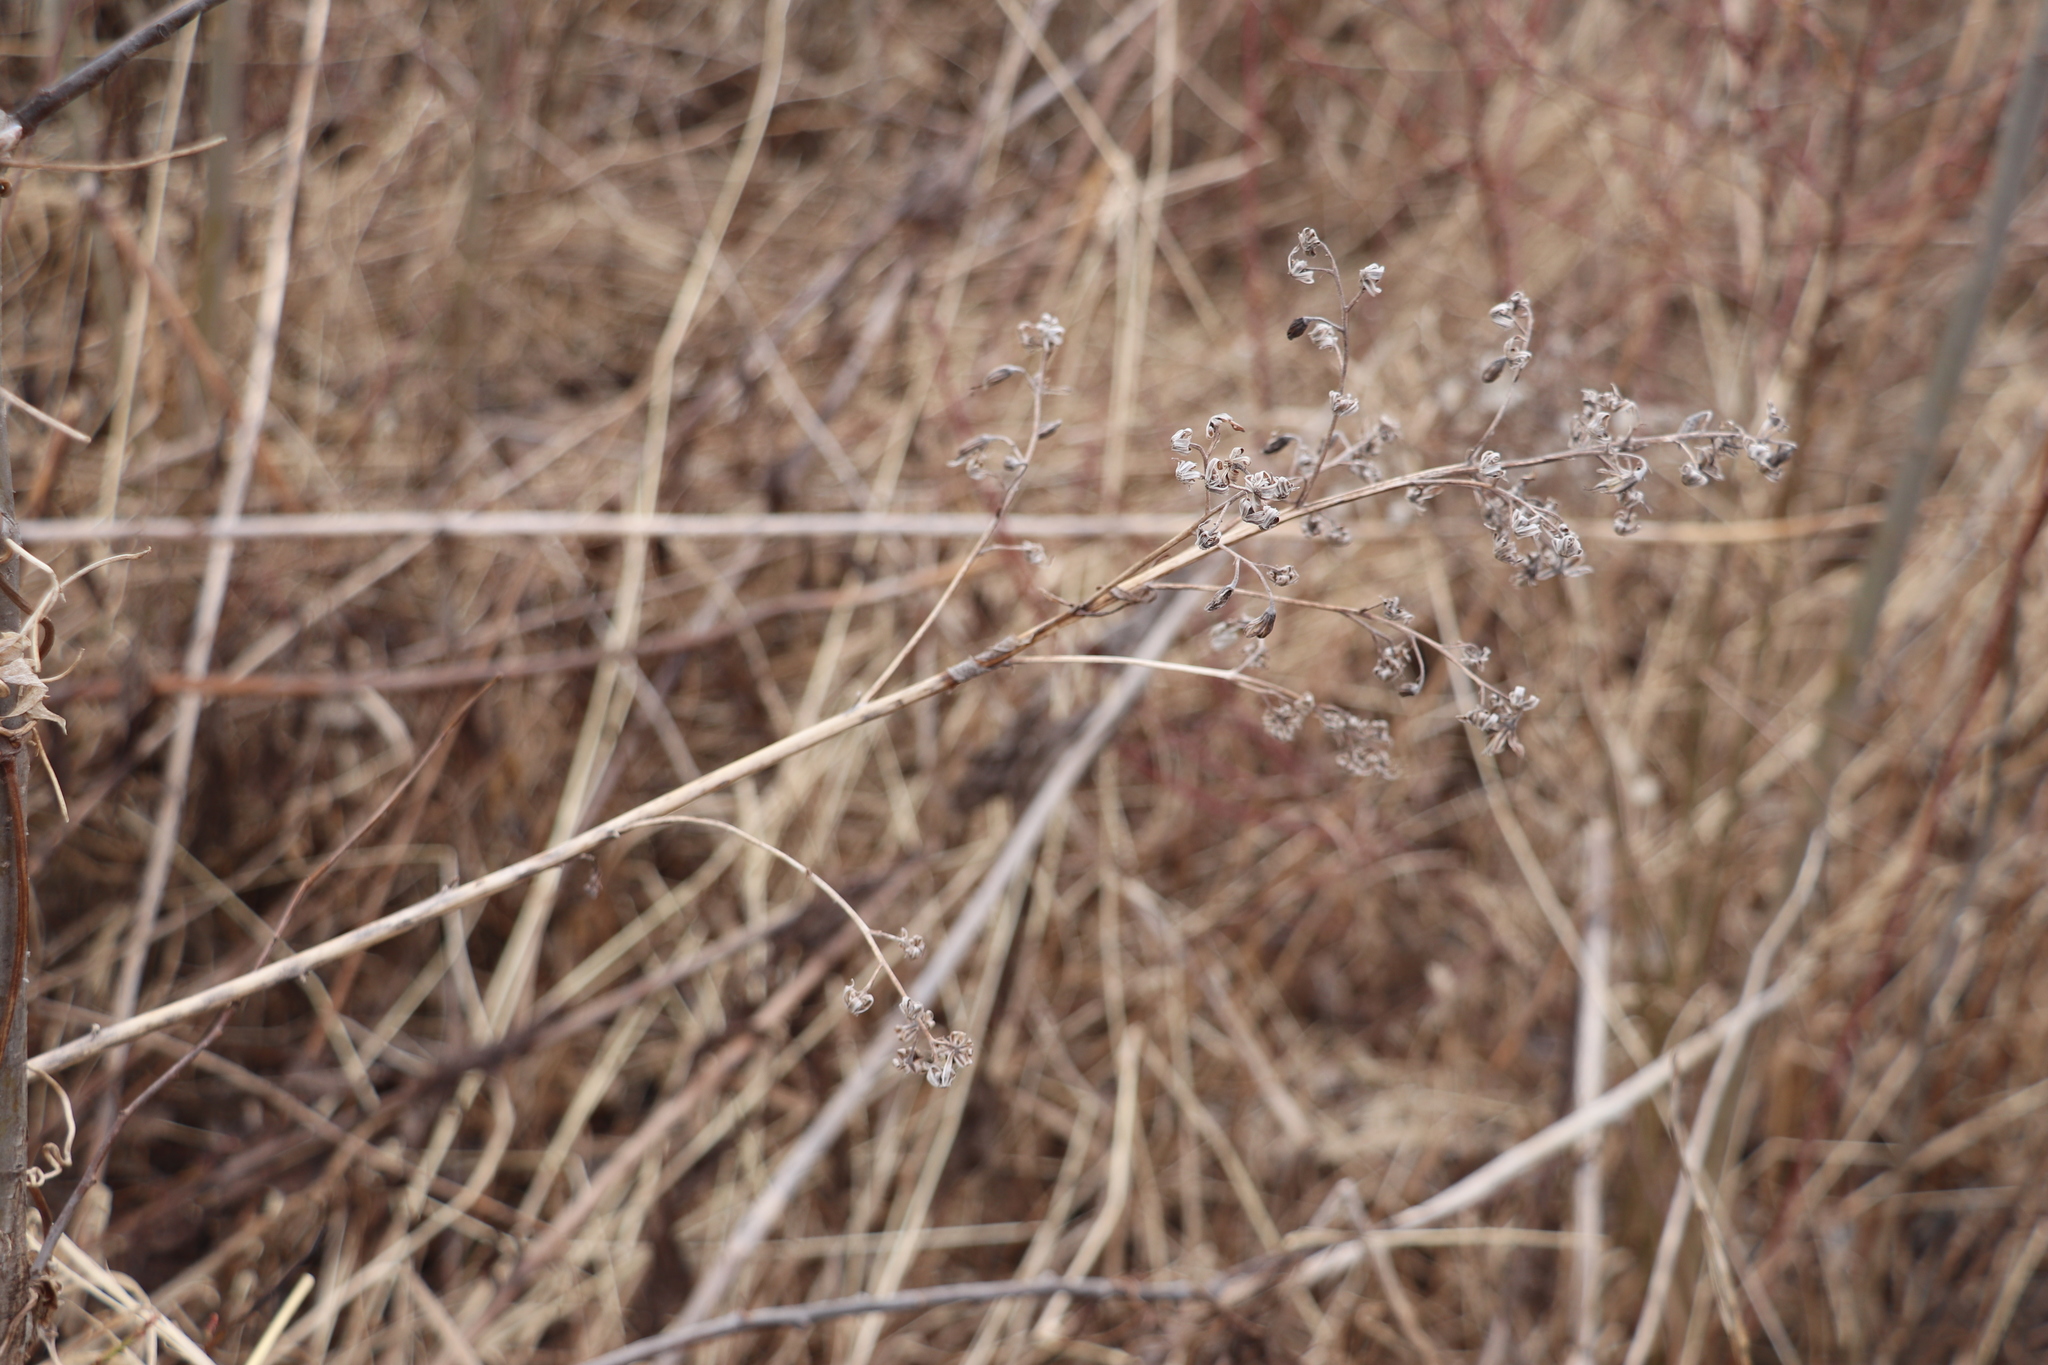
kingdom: Plantae
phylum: Tracheophyta
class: Magnoliopsida
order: Asterales
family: Asteraceae
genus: Parasenecio
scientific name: Parasenecio hastatus
